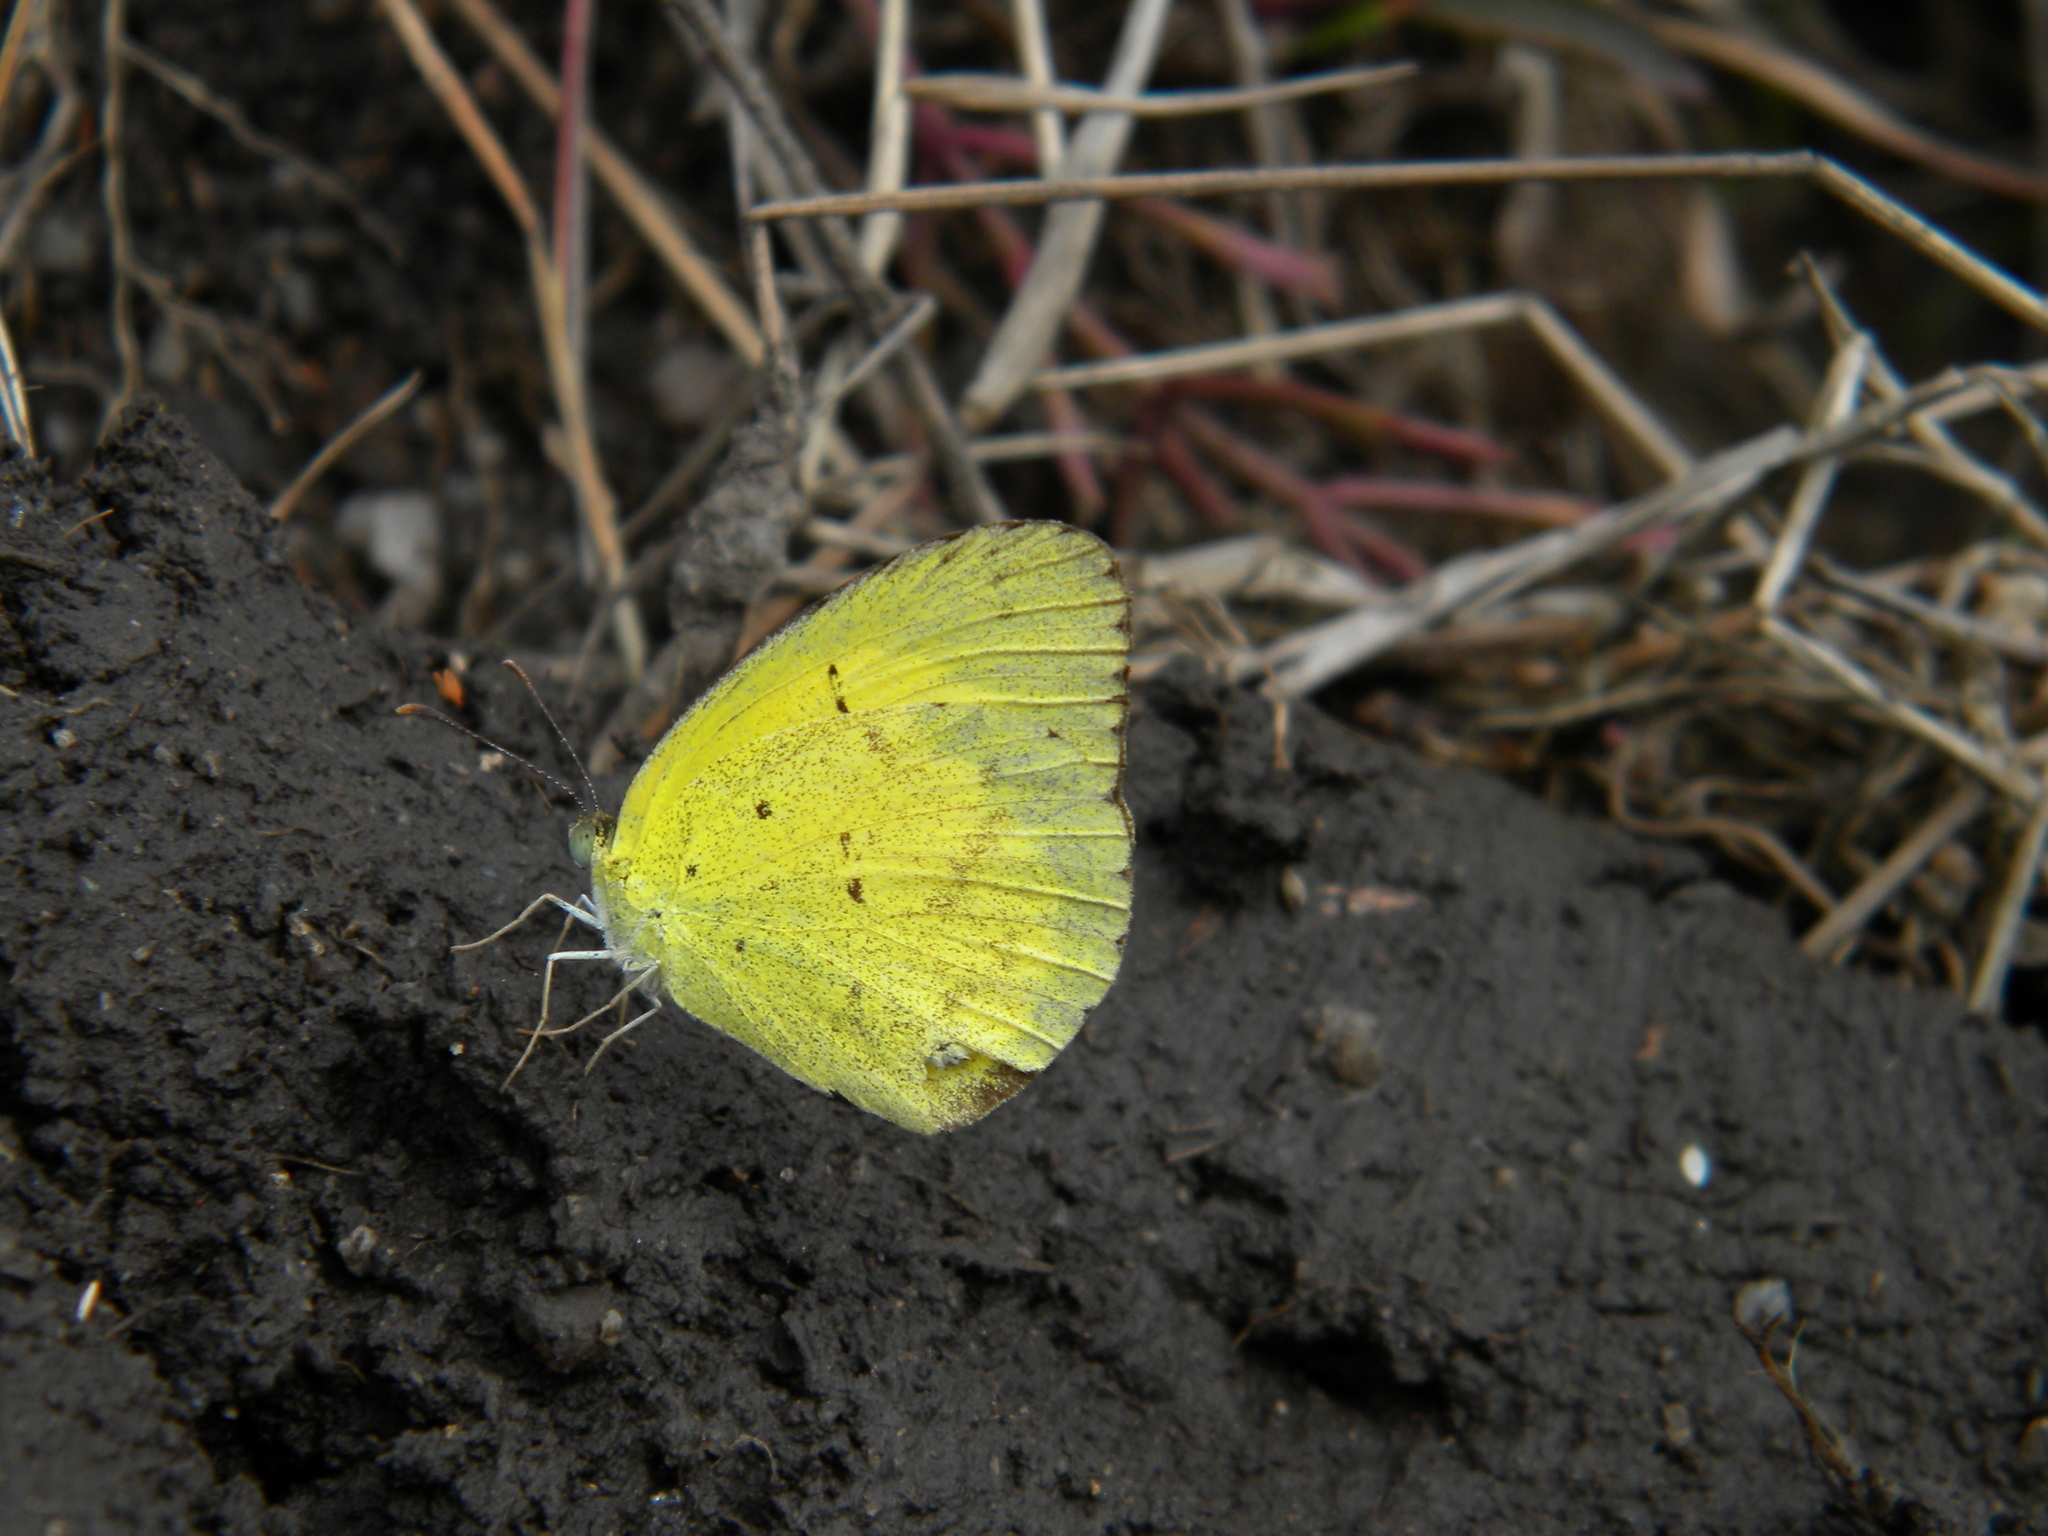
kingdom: Animalia
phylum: Arthropoda
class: Insecta
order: Lepidoptera
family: Pieridae
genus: Eurema
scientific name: Eurema brigitta
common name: Small grass yellow
